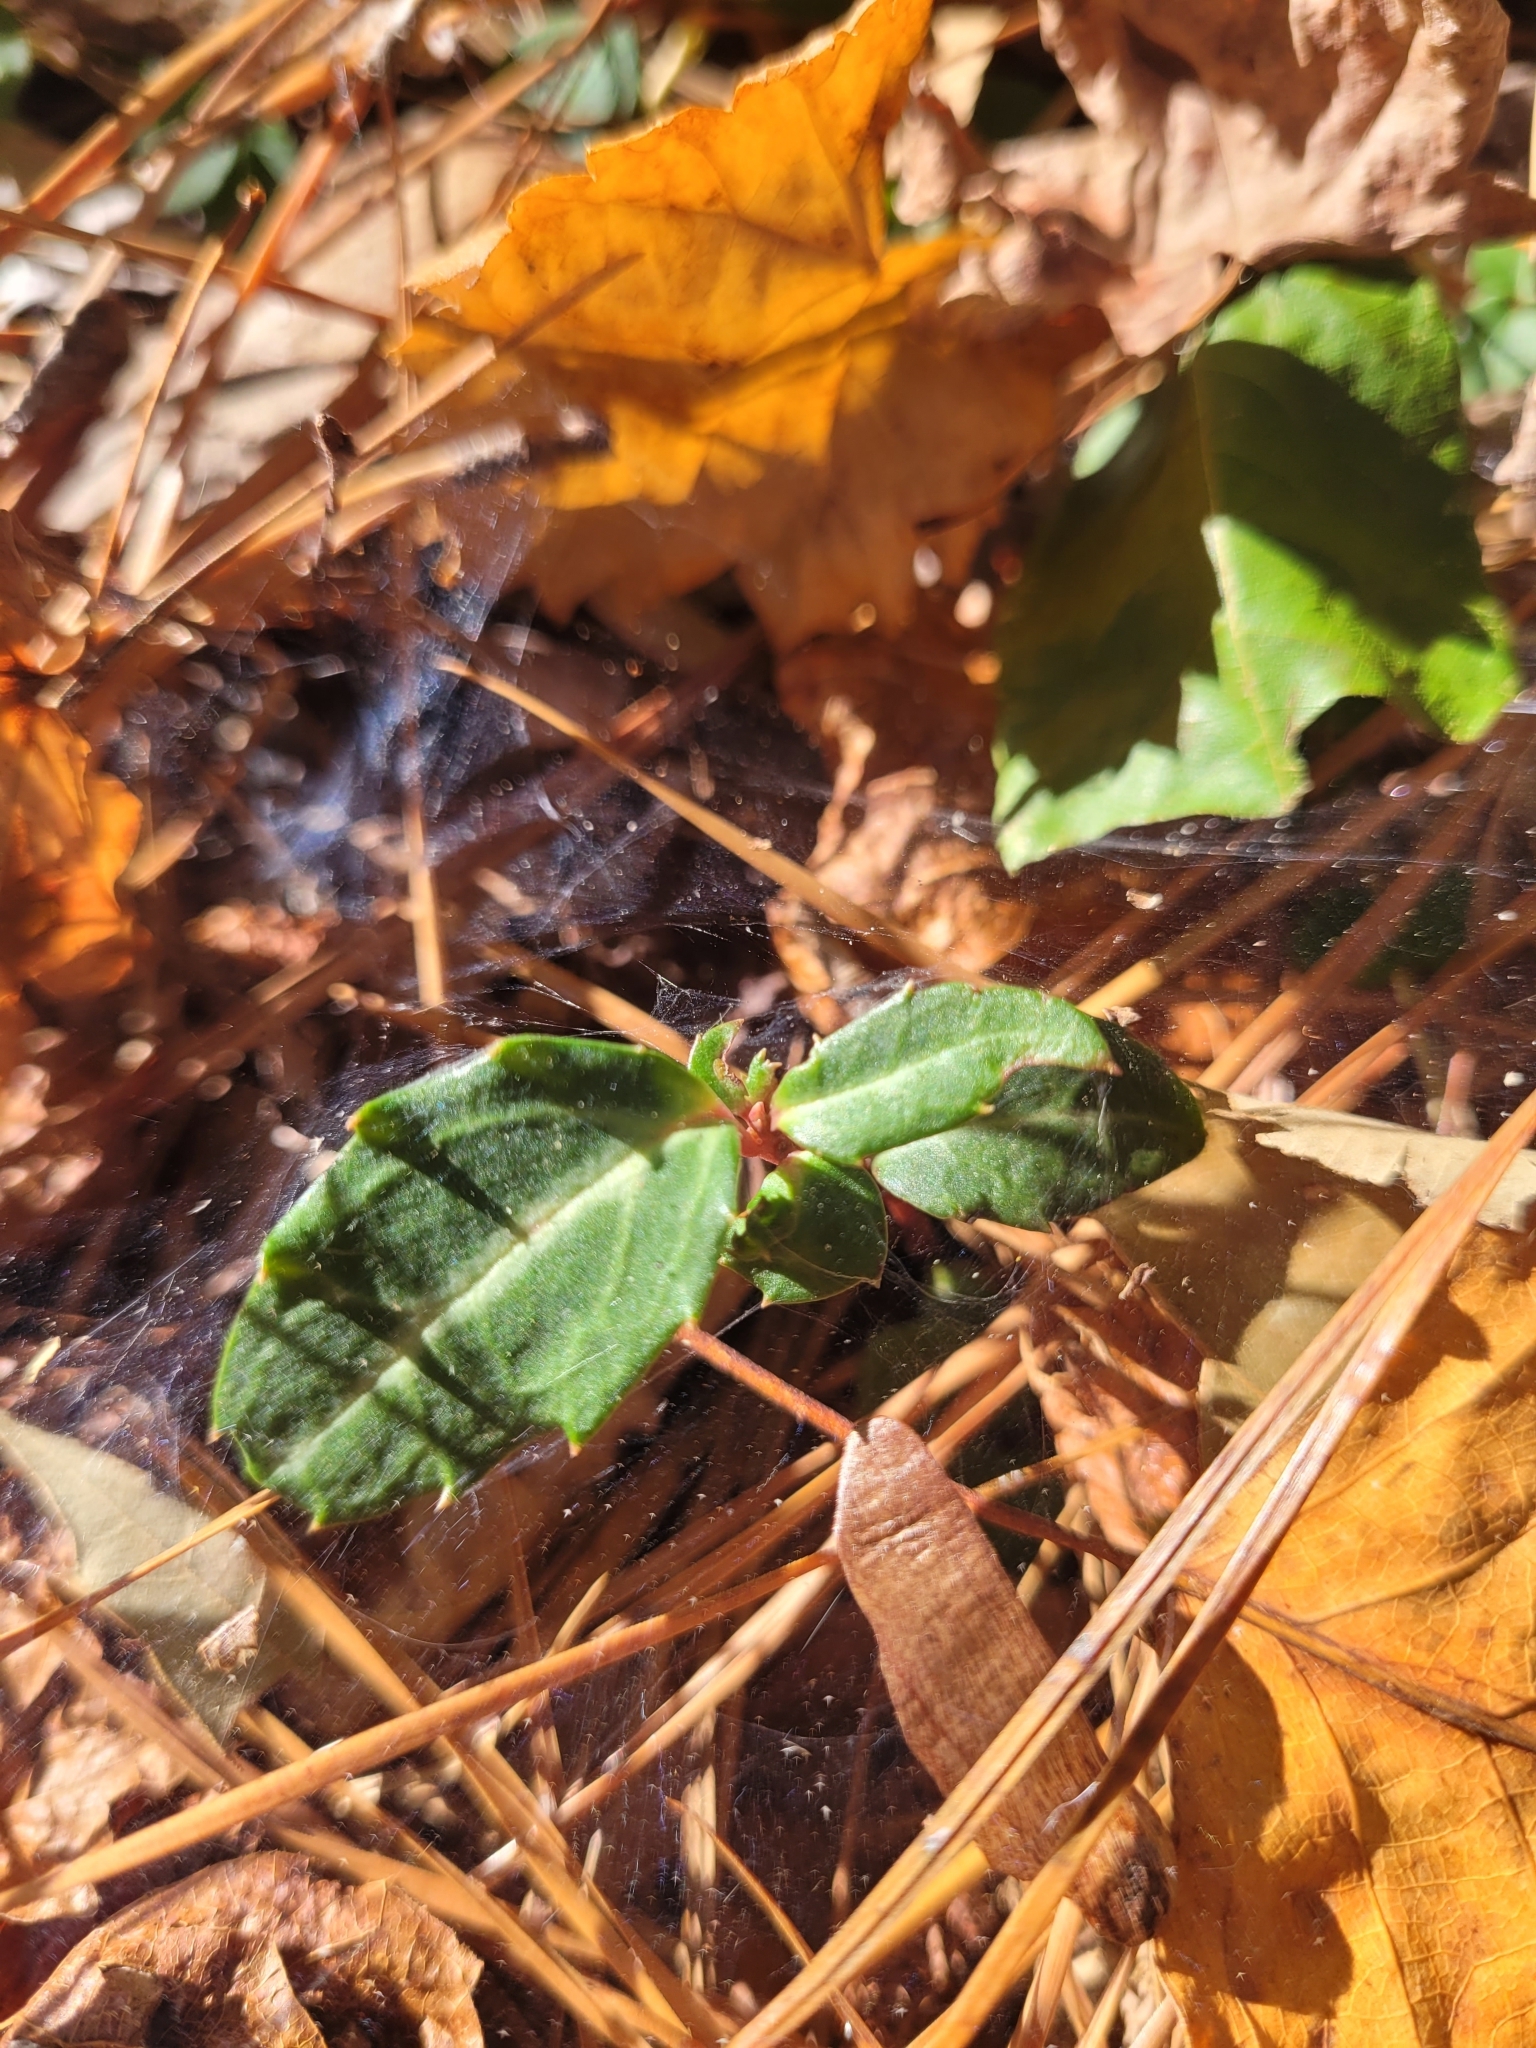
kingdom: Plantae
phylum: Tracheophyta
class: Magnoliopsida
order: Ericales
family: Ericaceae
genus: Chimaphila
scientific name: Chimaphila maculata
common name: Spotted pipsissewa
